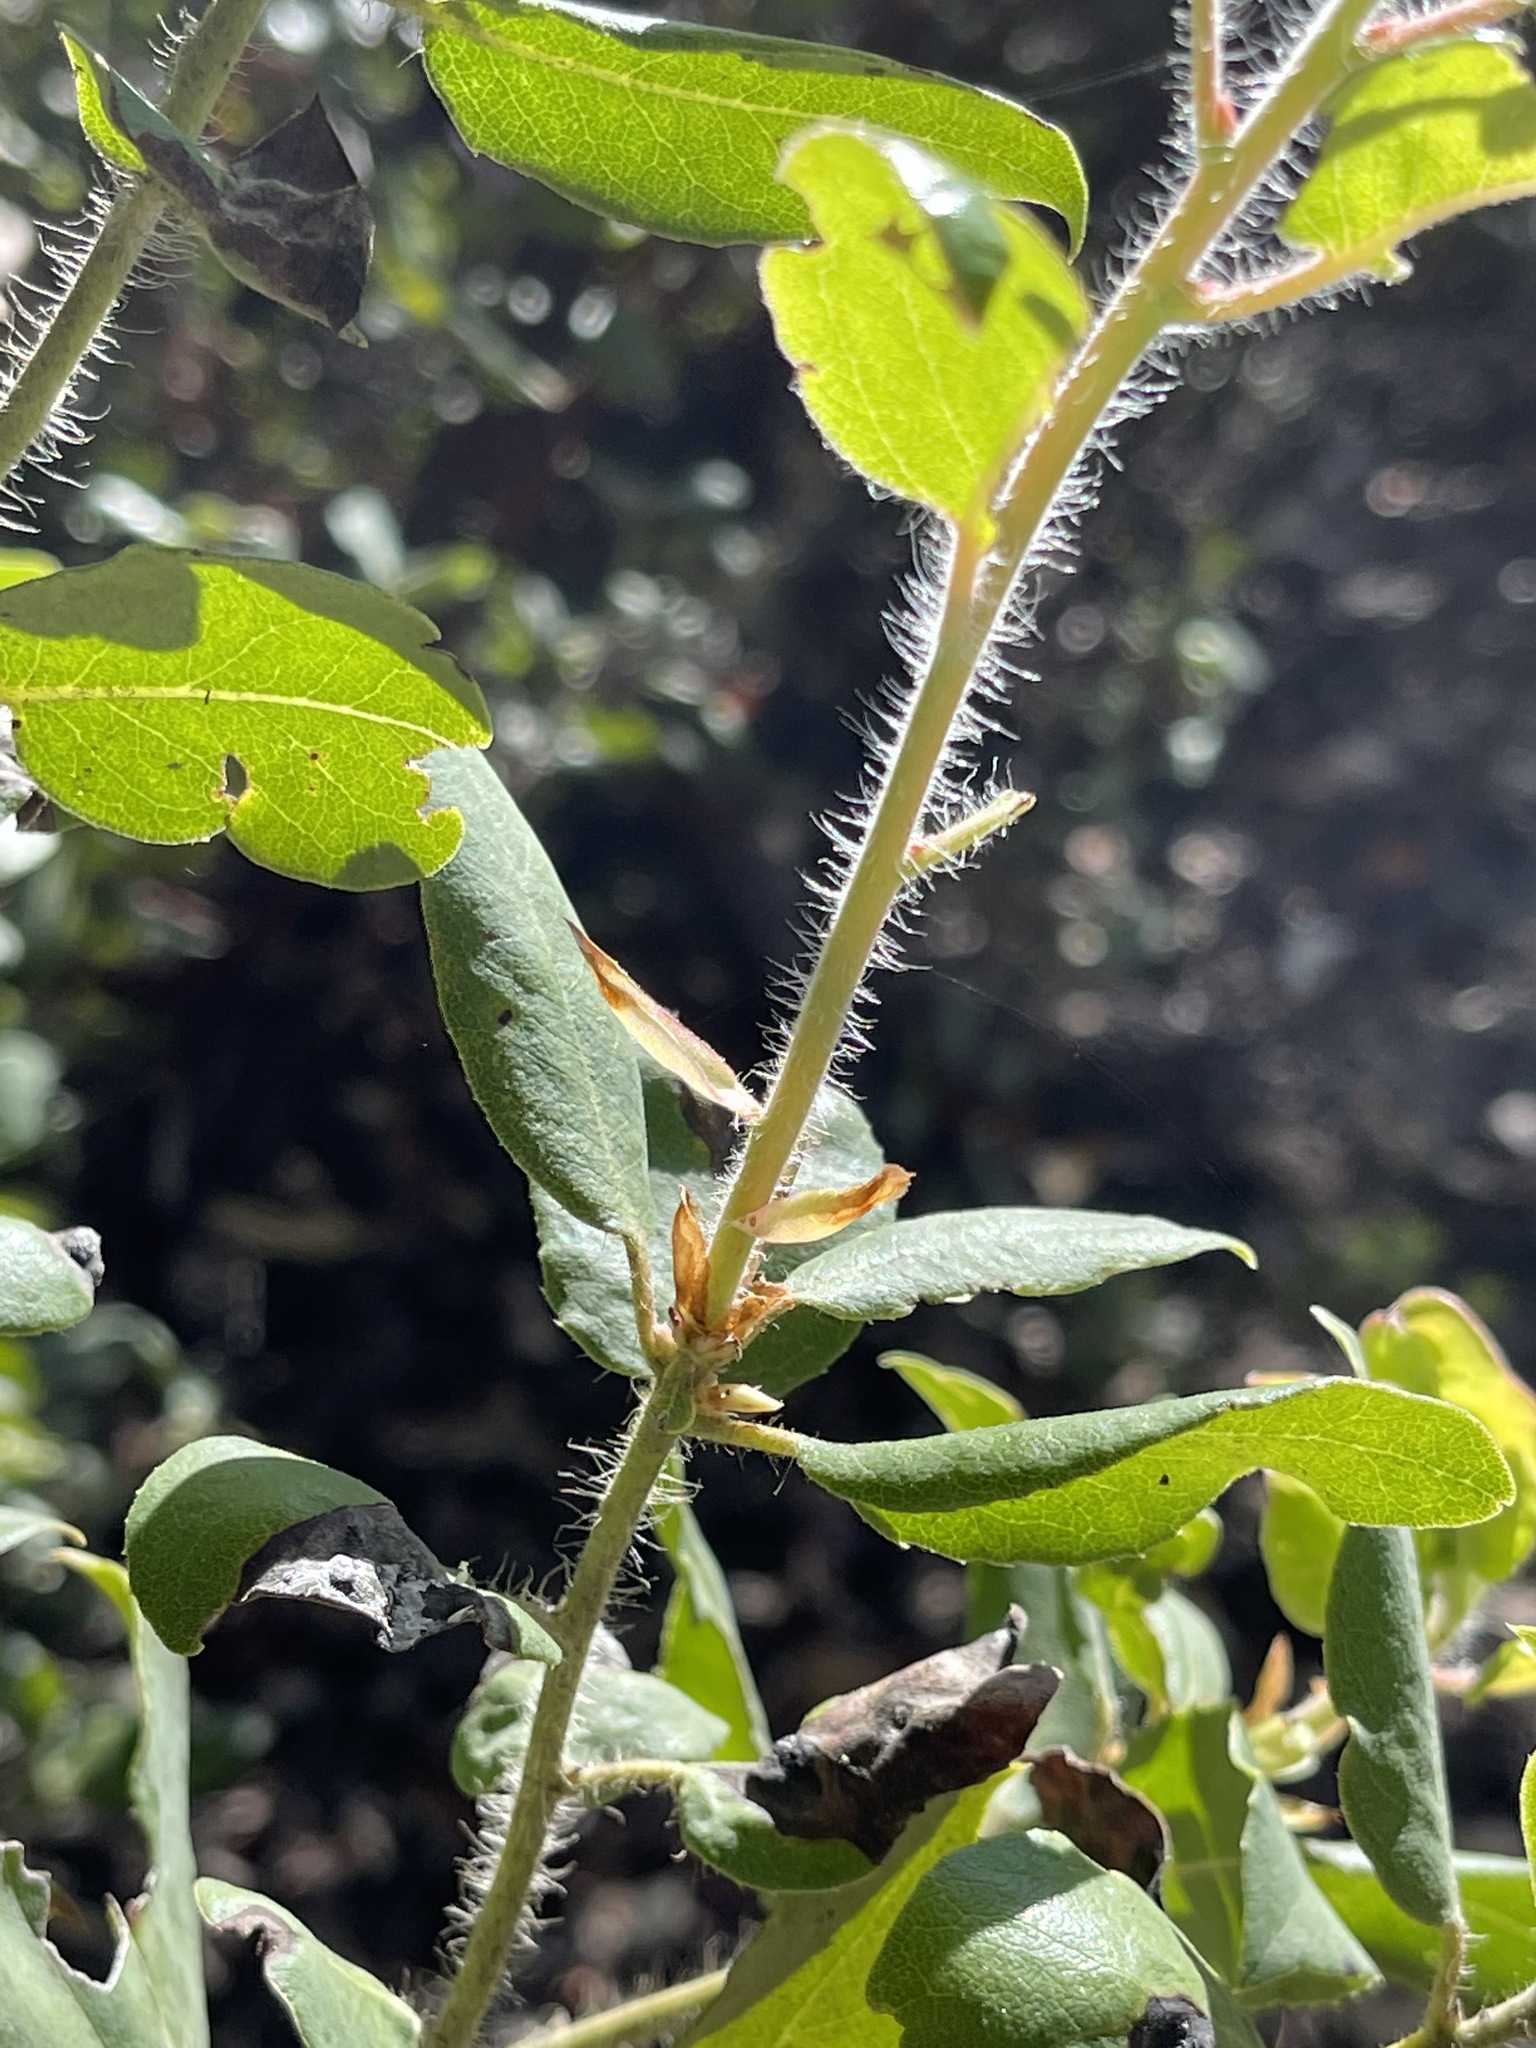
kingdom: Plantae
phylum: Tracheophyta
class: Magnoliopsida
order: Ericales
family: Ericaceae
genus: Arctostaphylos
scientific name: Arctostaphylos crustacea
